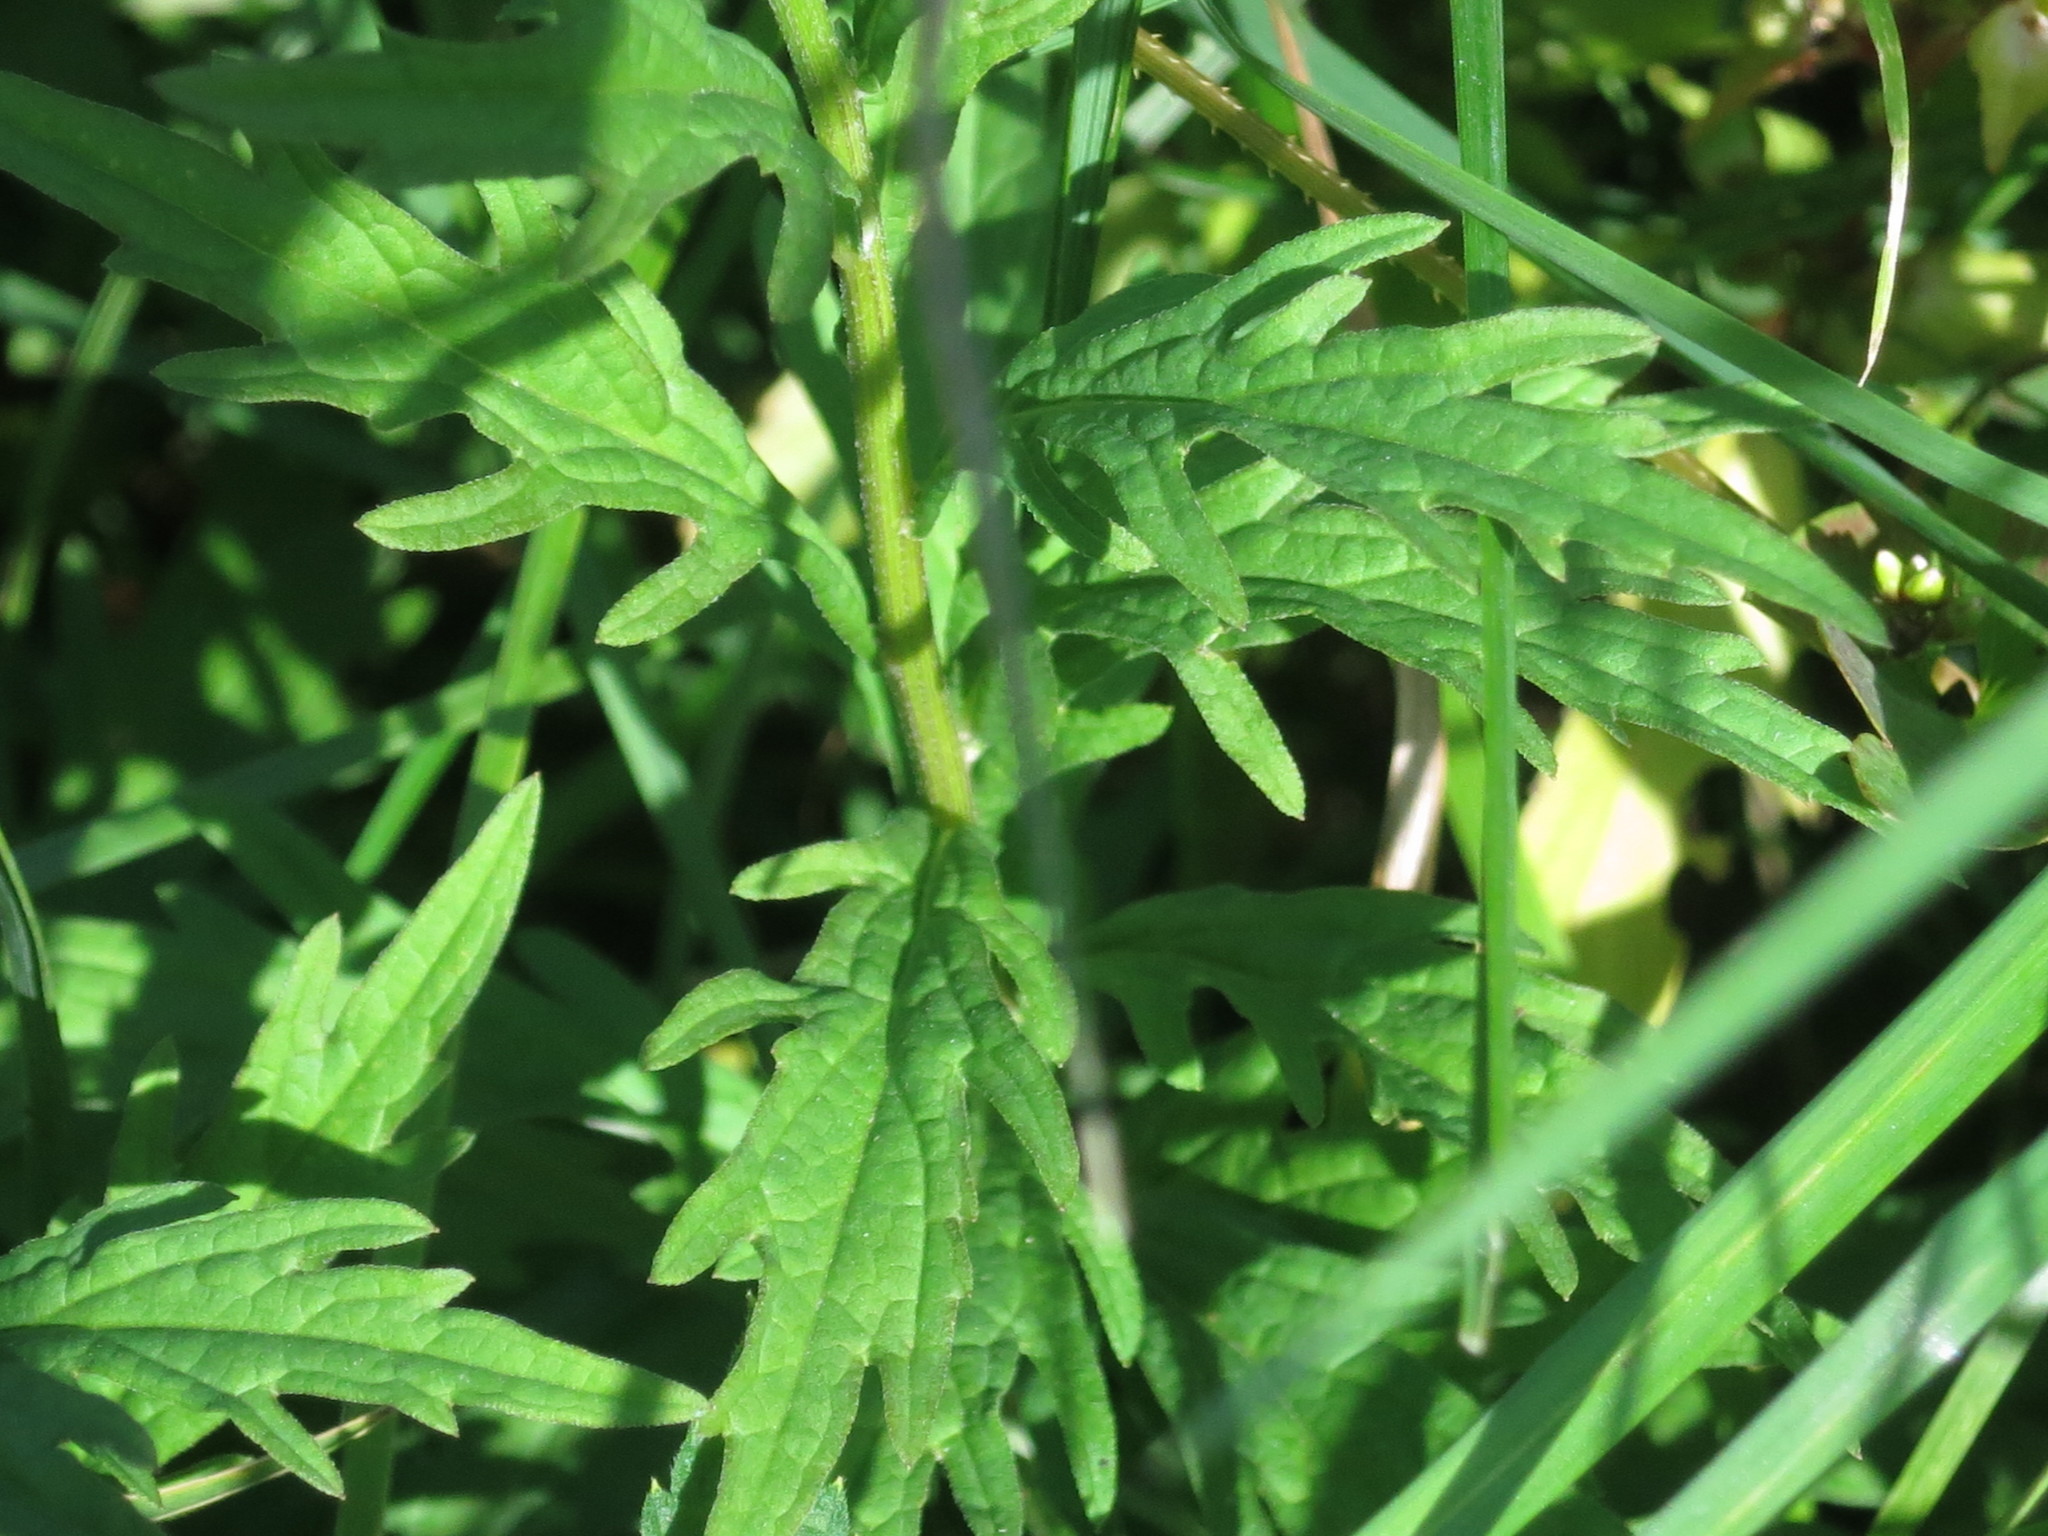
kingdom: Plantae
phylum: Tracheophyta
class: Magnoliopsida
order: Asterales
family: Asteraceae
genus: Kalimeris
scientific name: Kalimeris incisa
